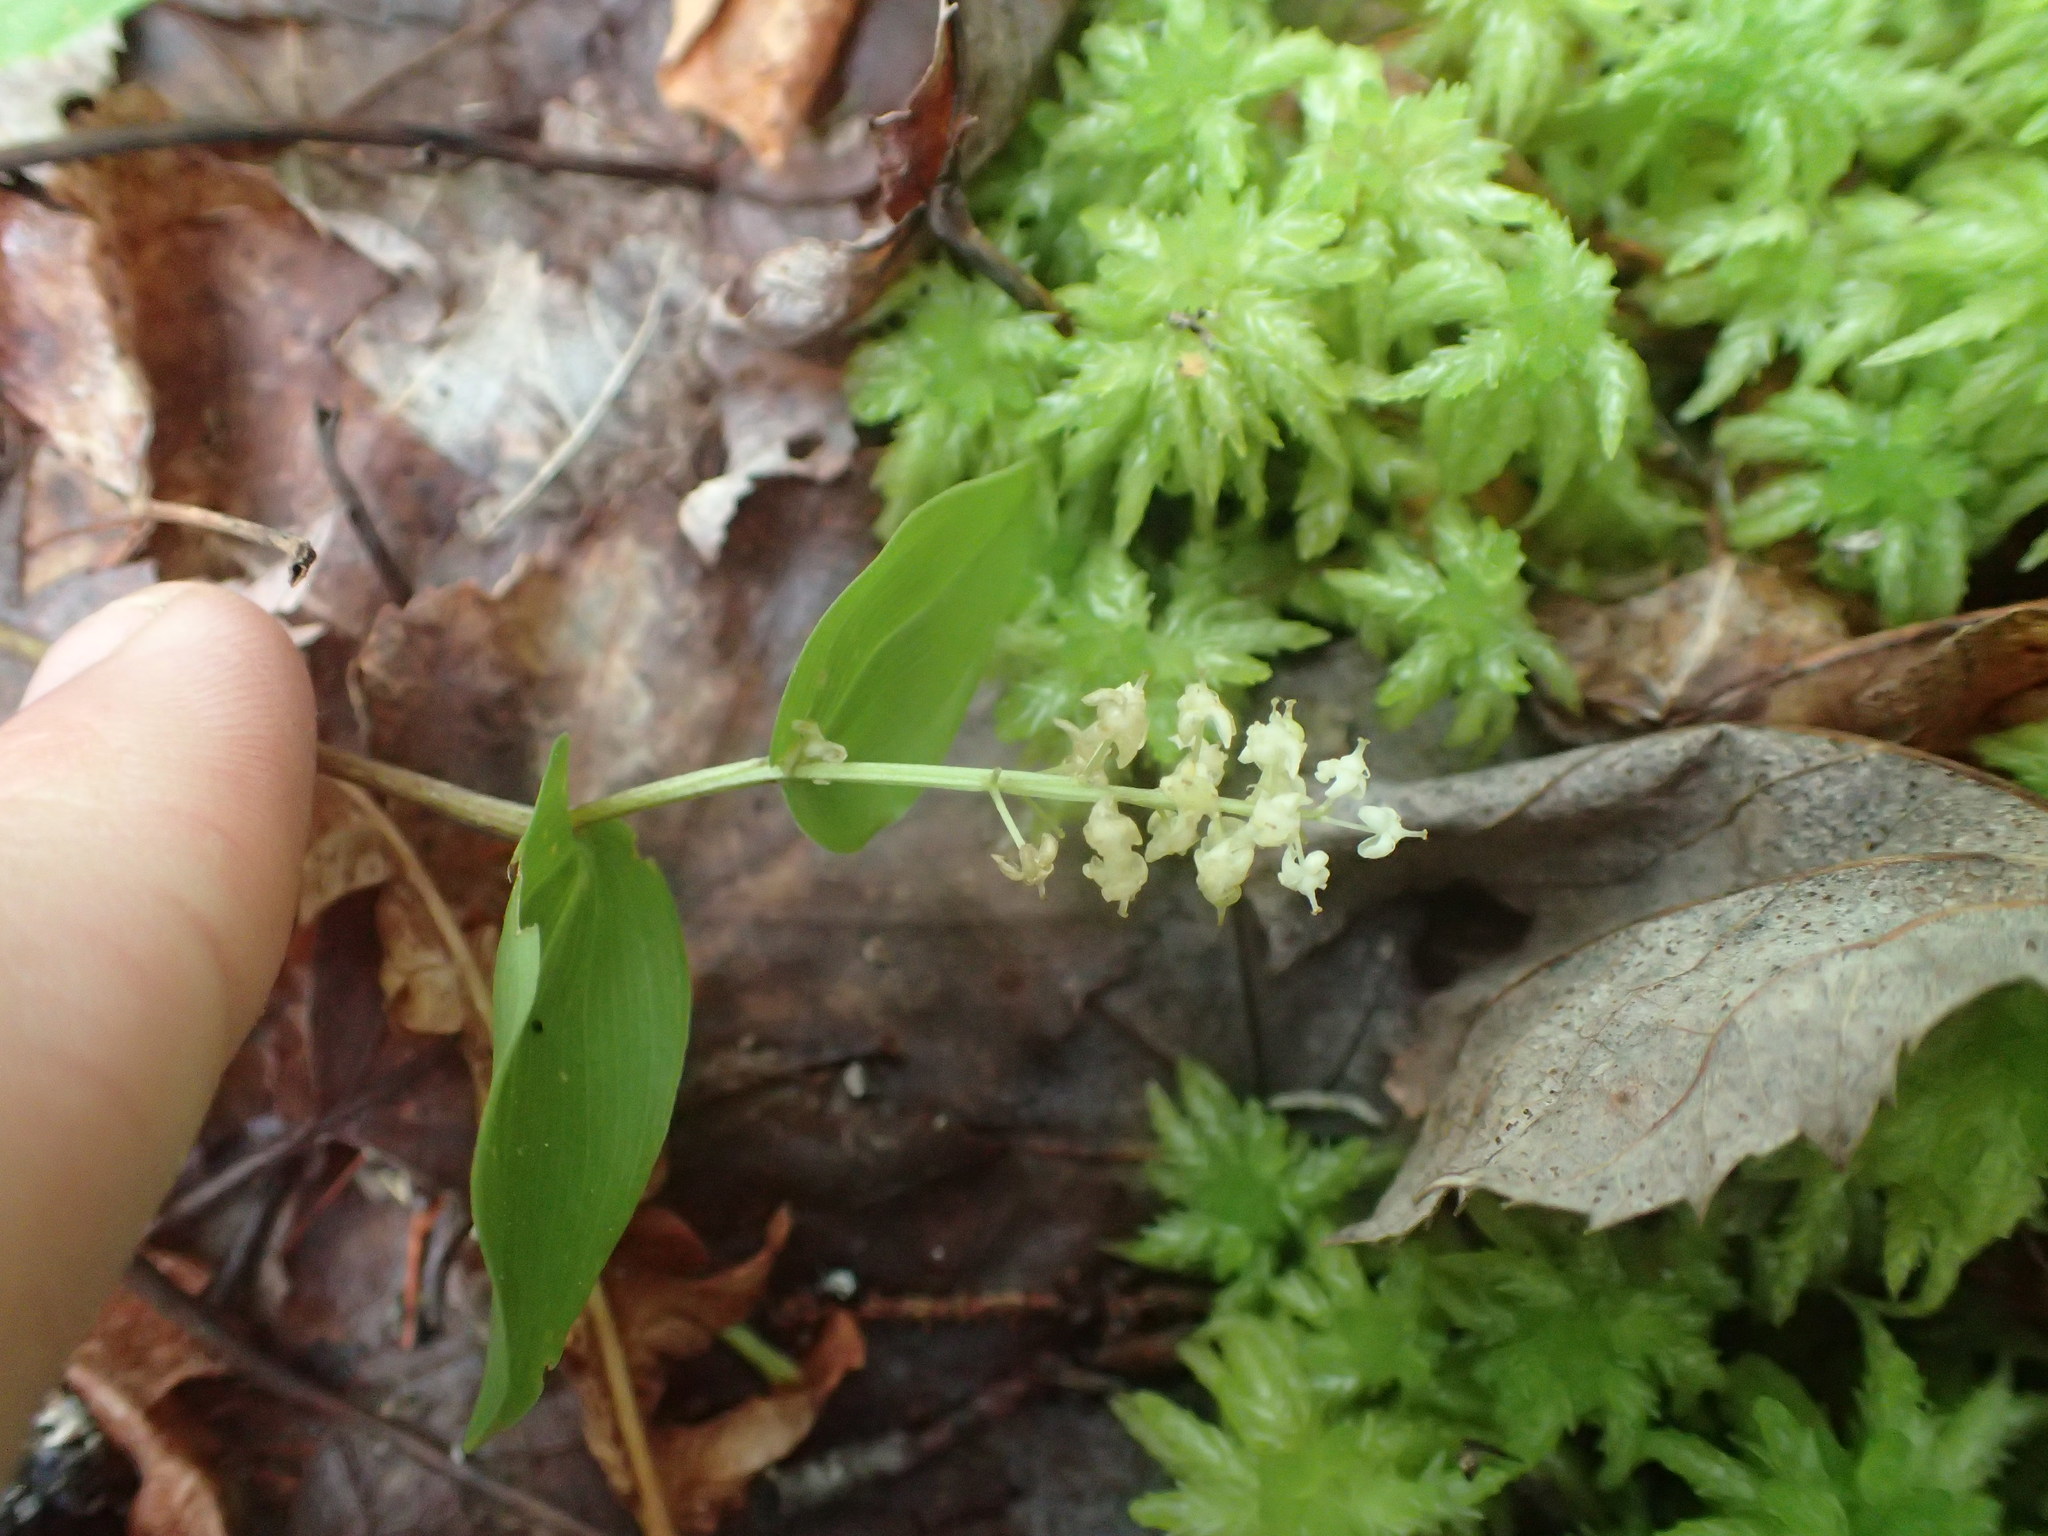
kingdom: Plantae
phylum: Tracheophyta
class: Liliopsida
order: Asparagales
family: Asparagaceae
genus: Maianthemum
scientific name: Maianthemum canadense
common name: False lily-of-the-valley
